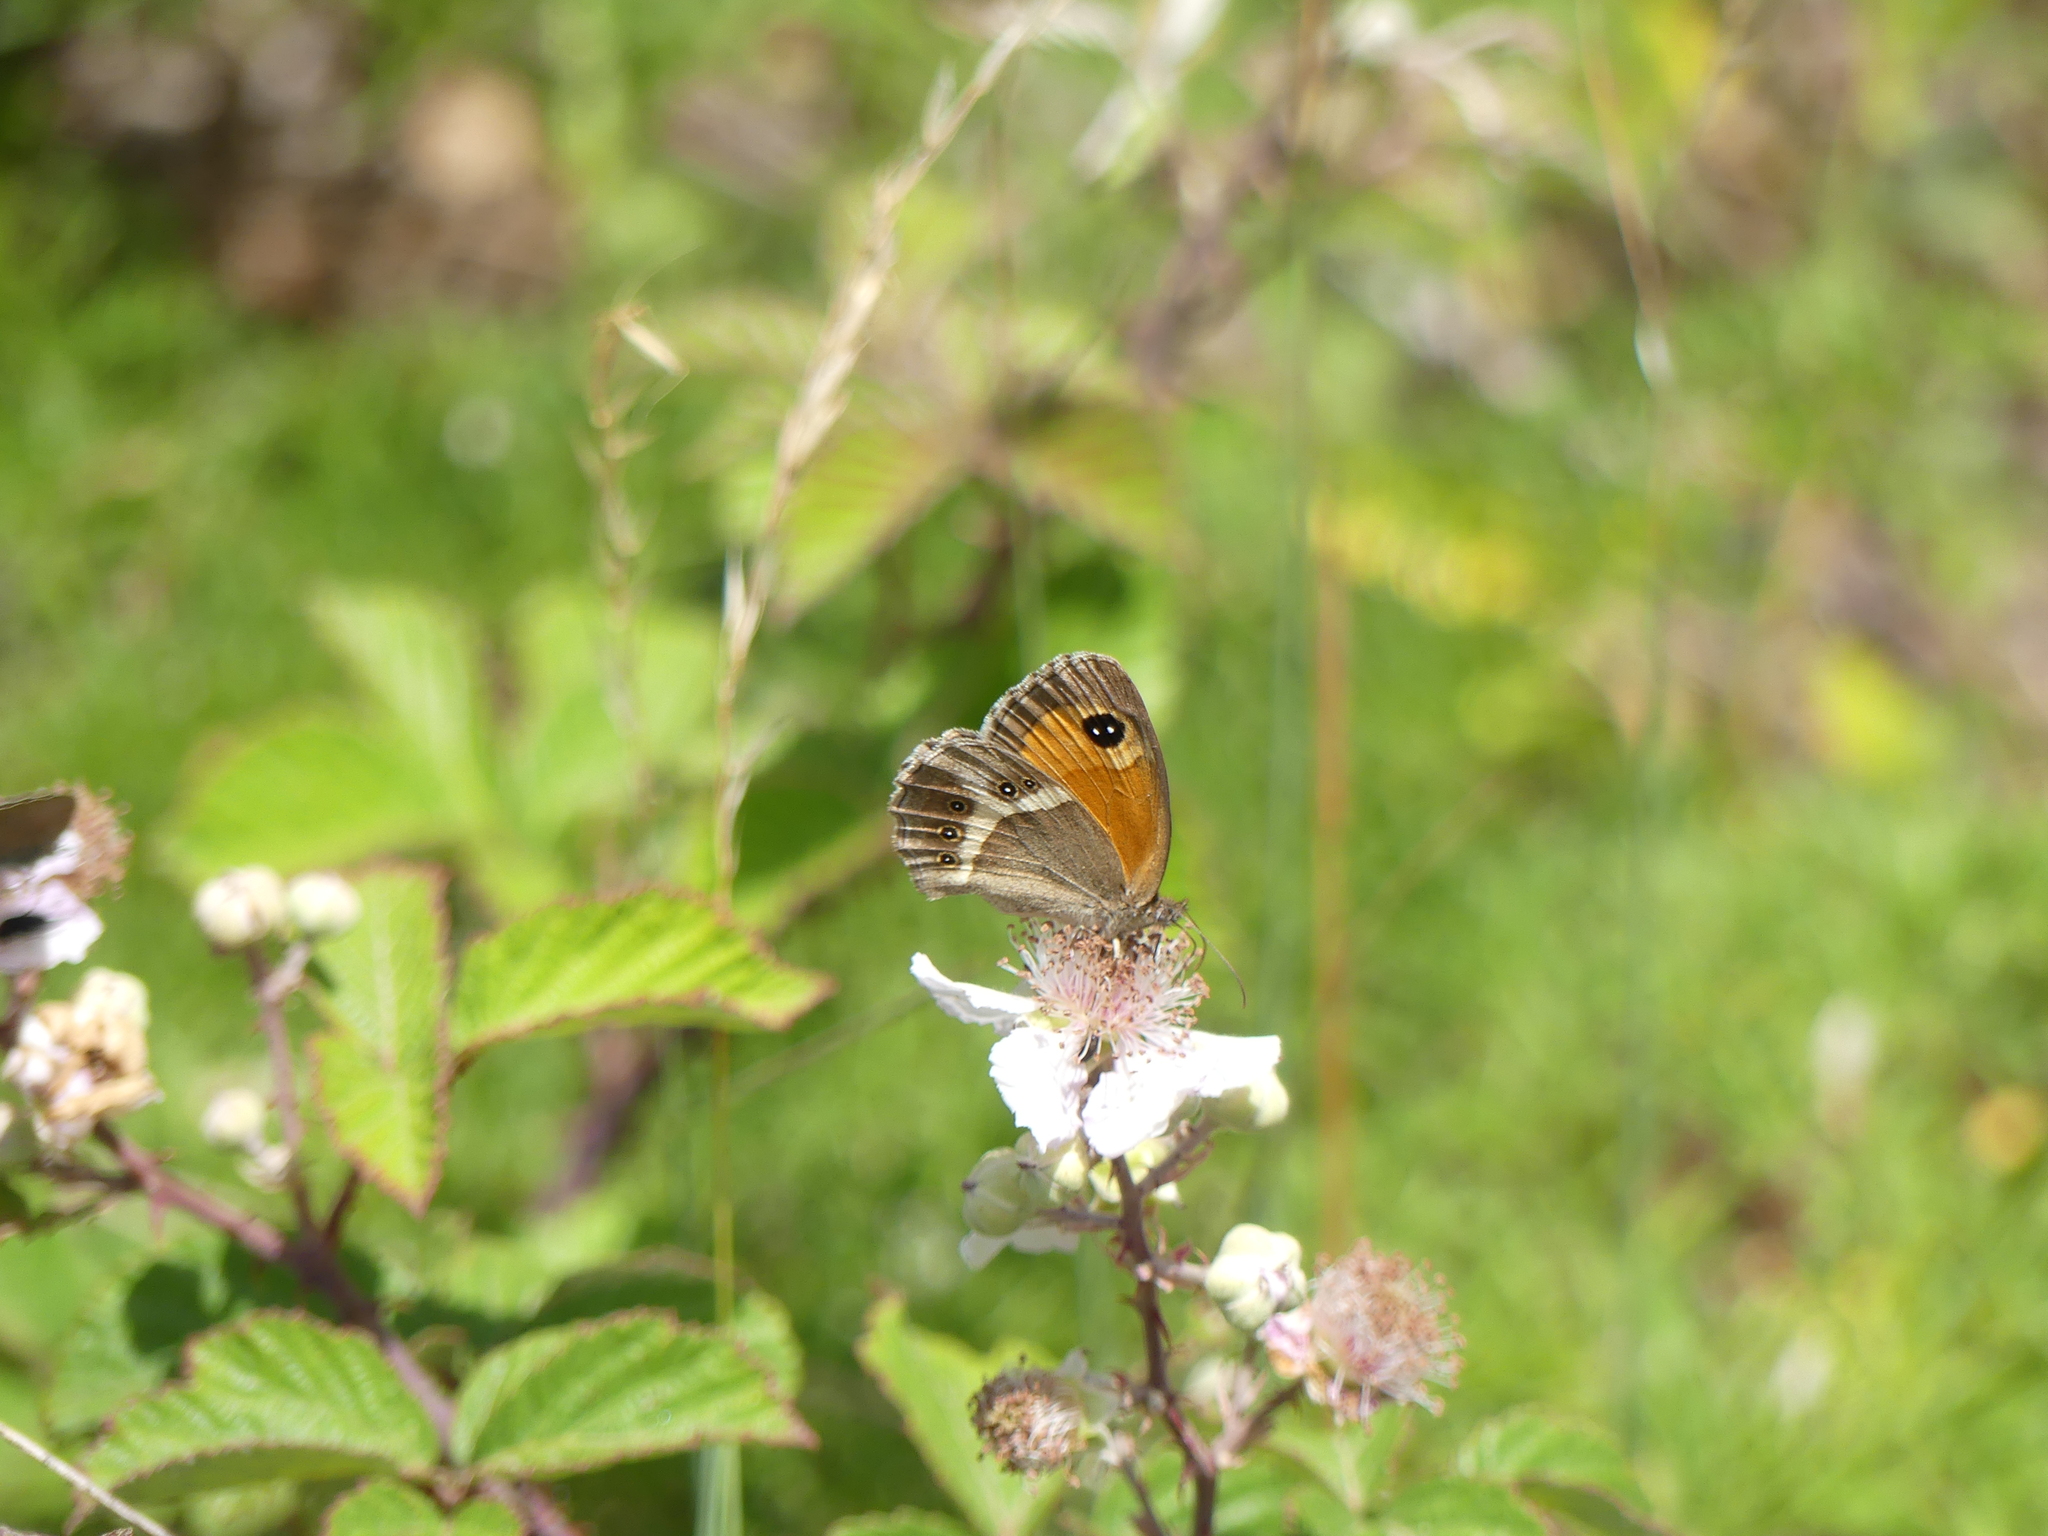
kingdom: Animalia
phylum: Arthropoda
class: Insecta
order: Lepidoptera
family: Nymphalidae
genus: Pyronia
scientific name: Pyronia bathseba
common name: Spanish gatekeeper
